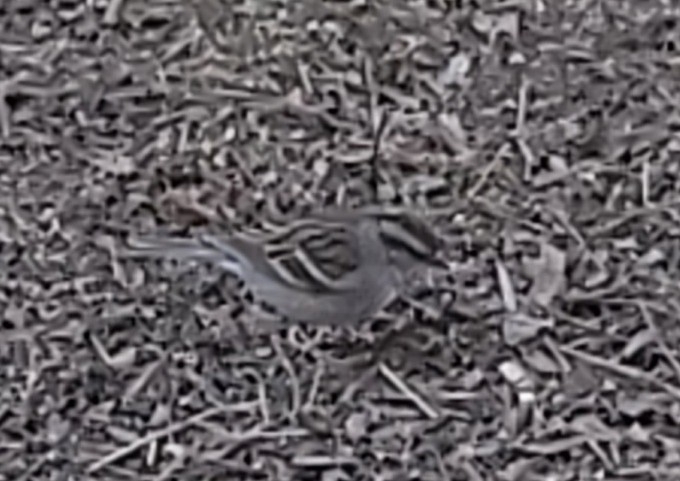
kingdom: Animalia
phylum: Chordata
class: Aves
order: Passeriformes
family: Passerellidae
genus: Spizella
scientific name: Spizella passerina
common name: Chipping sparrow
